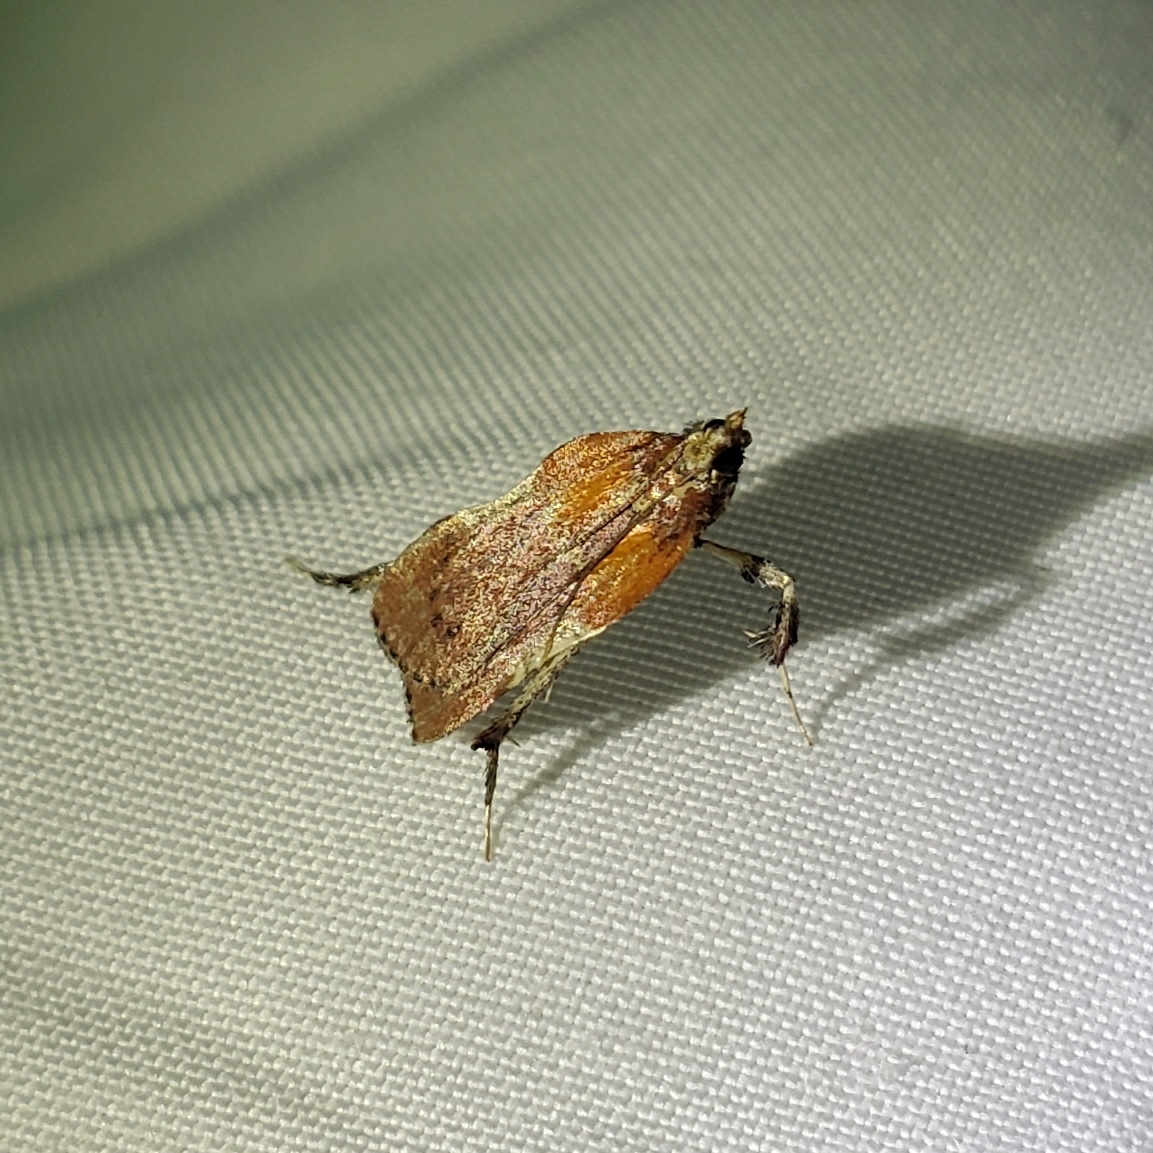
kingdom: Animalia
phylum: Arthropoda
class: Insecta
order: Lepidoptera
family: Pyralidae
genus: Galasa
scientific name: Galasa nigrinodis
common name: Boxwood leaftier moth
